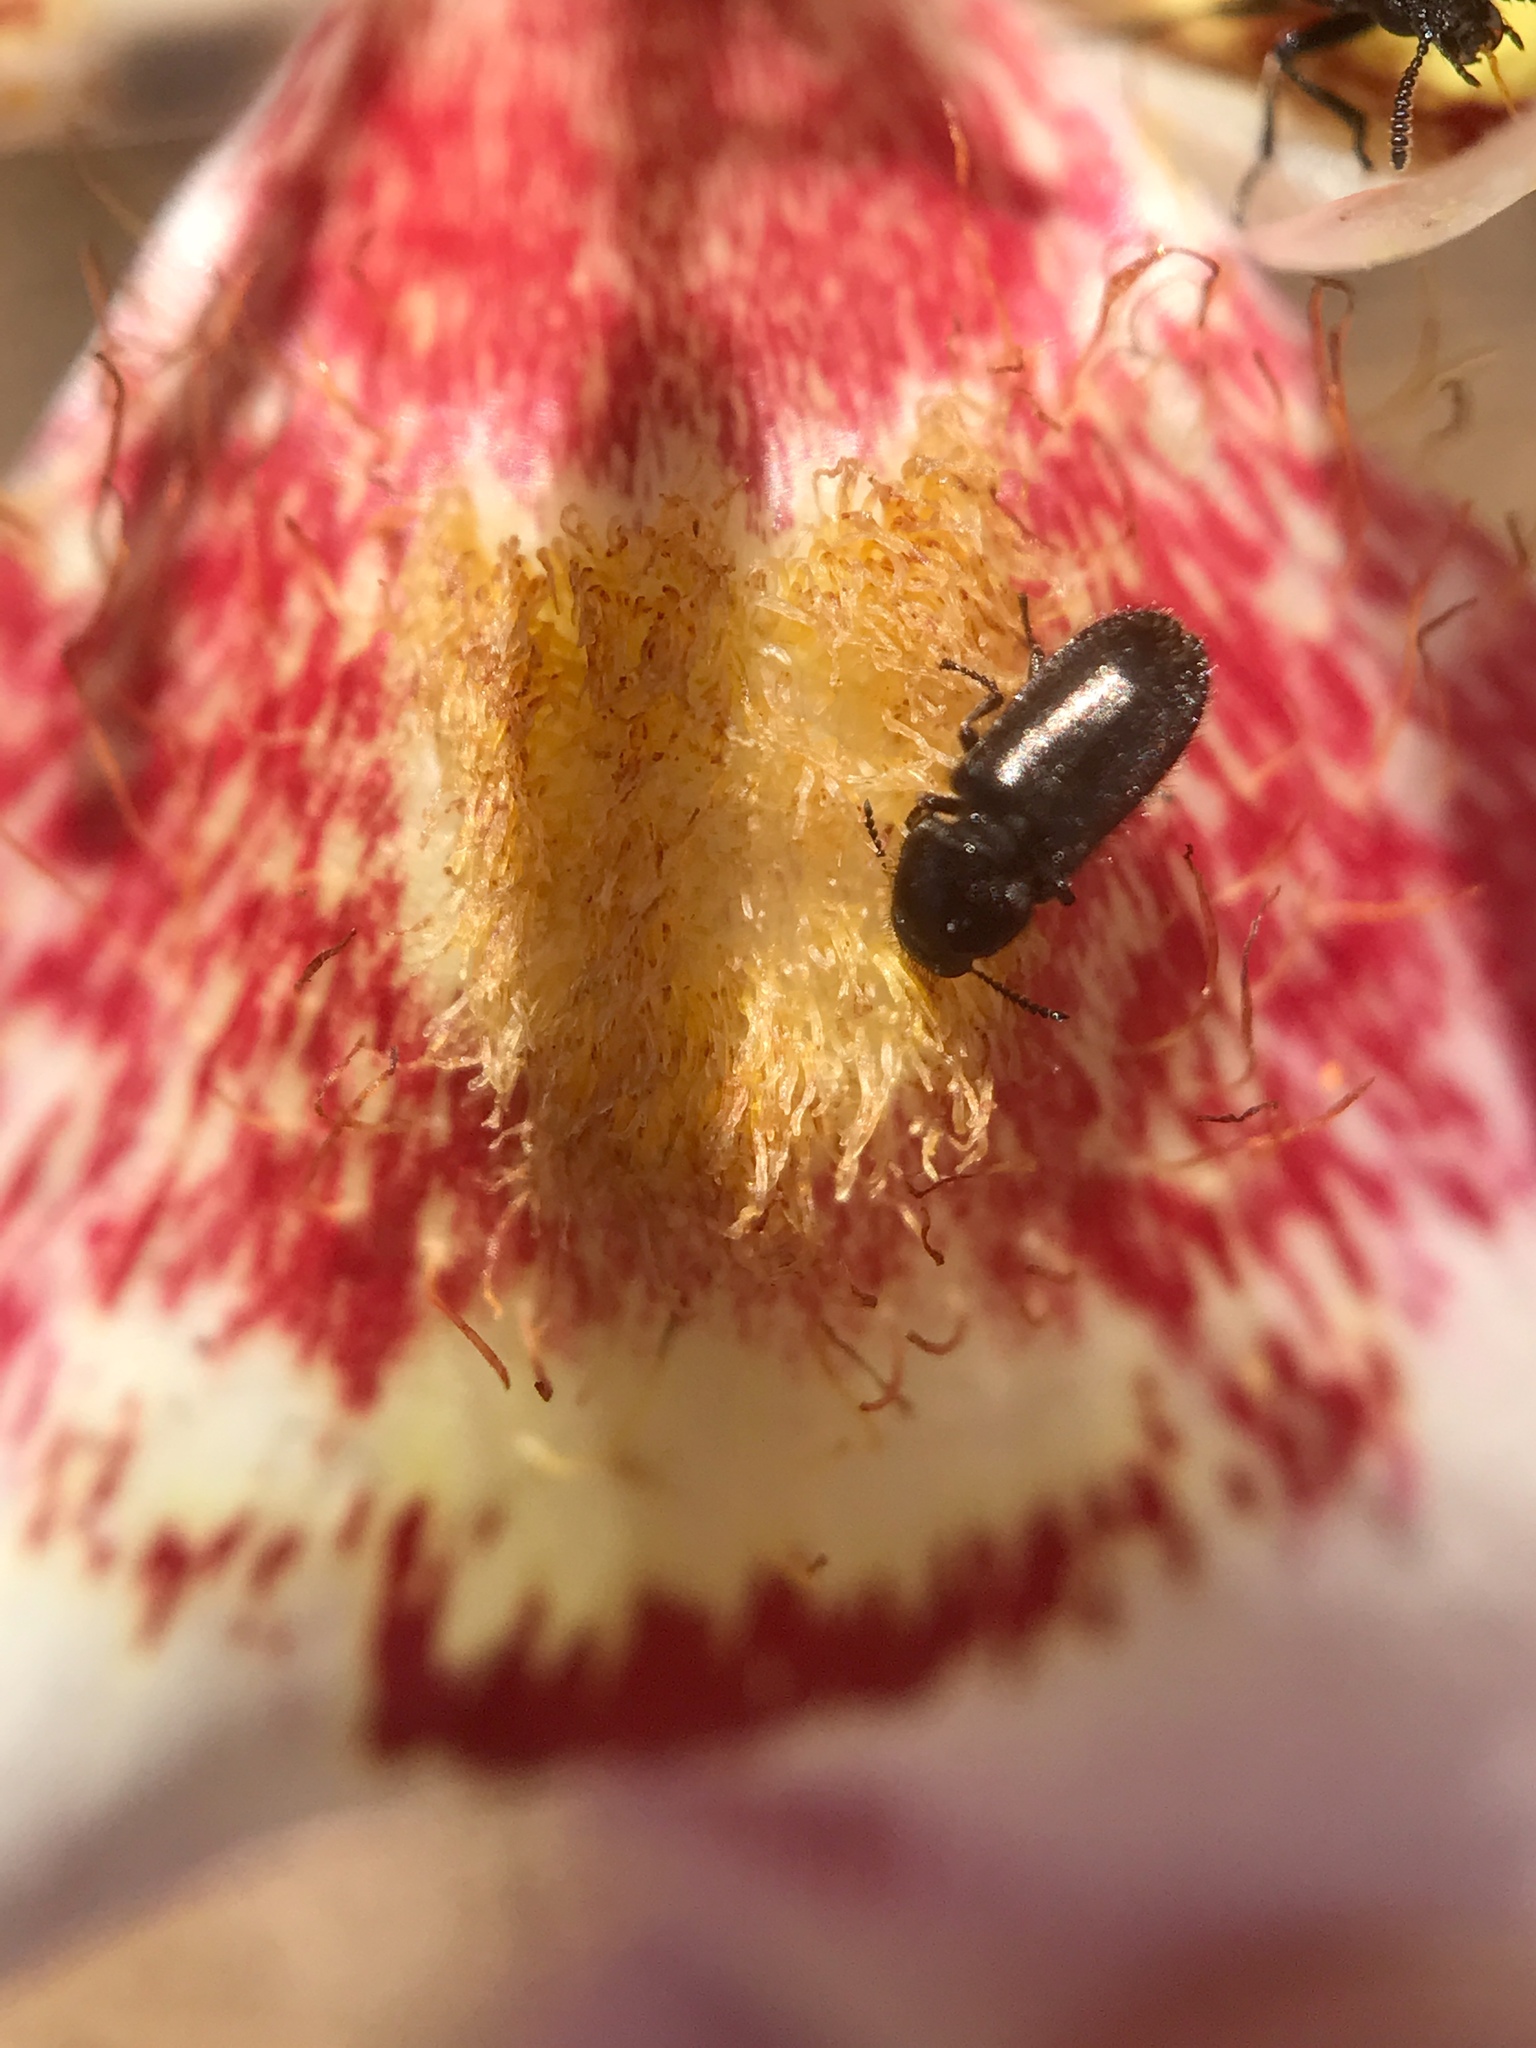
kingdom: Plantae
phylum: Tracheophyta
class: Liliopsida
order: Liliales
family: Liliaceae
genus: Calochortus
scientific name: Calochortus venustus
